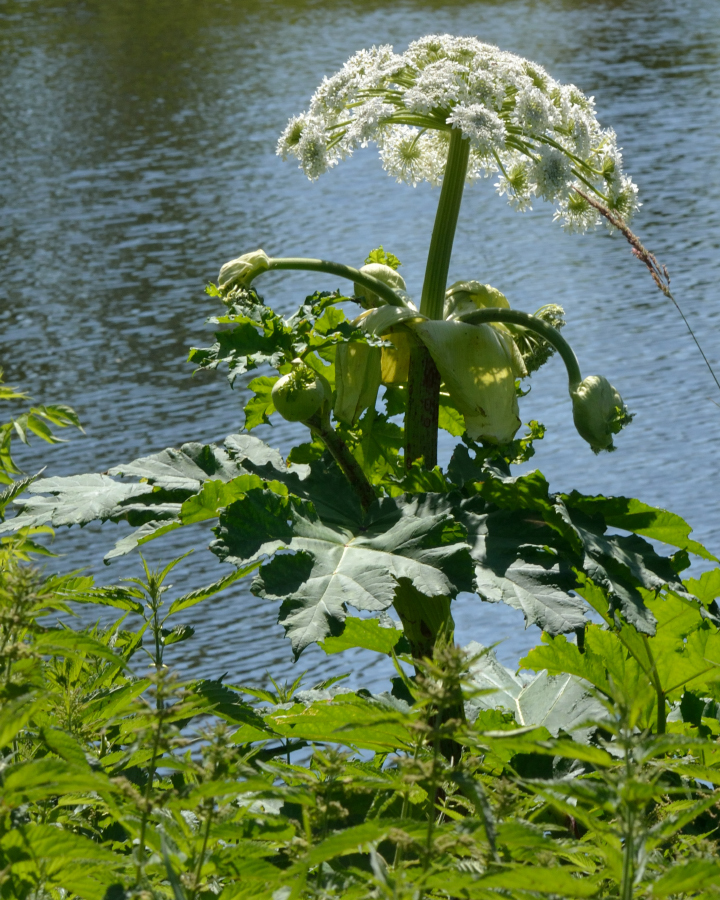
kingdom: Plantae
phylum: Tracheophyta
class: Magnoliopsida
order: Apiales
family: Apiaceae
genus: Heracleum
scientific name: Heracleum sosnowskyi
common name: Sosnowsky's hogweed
